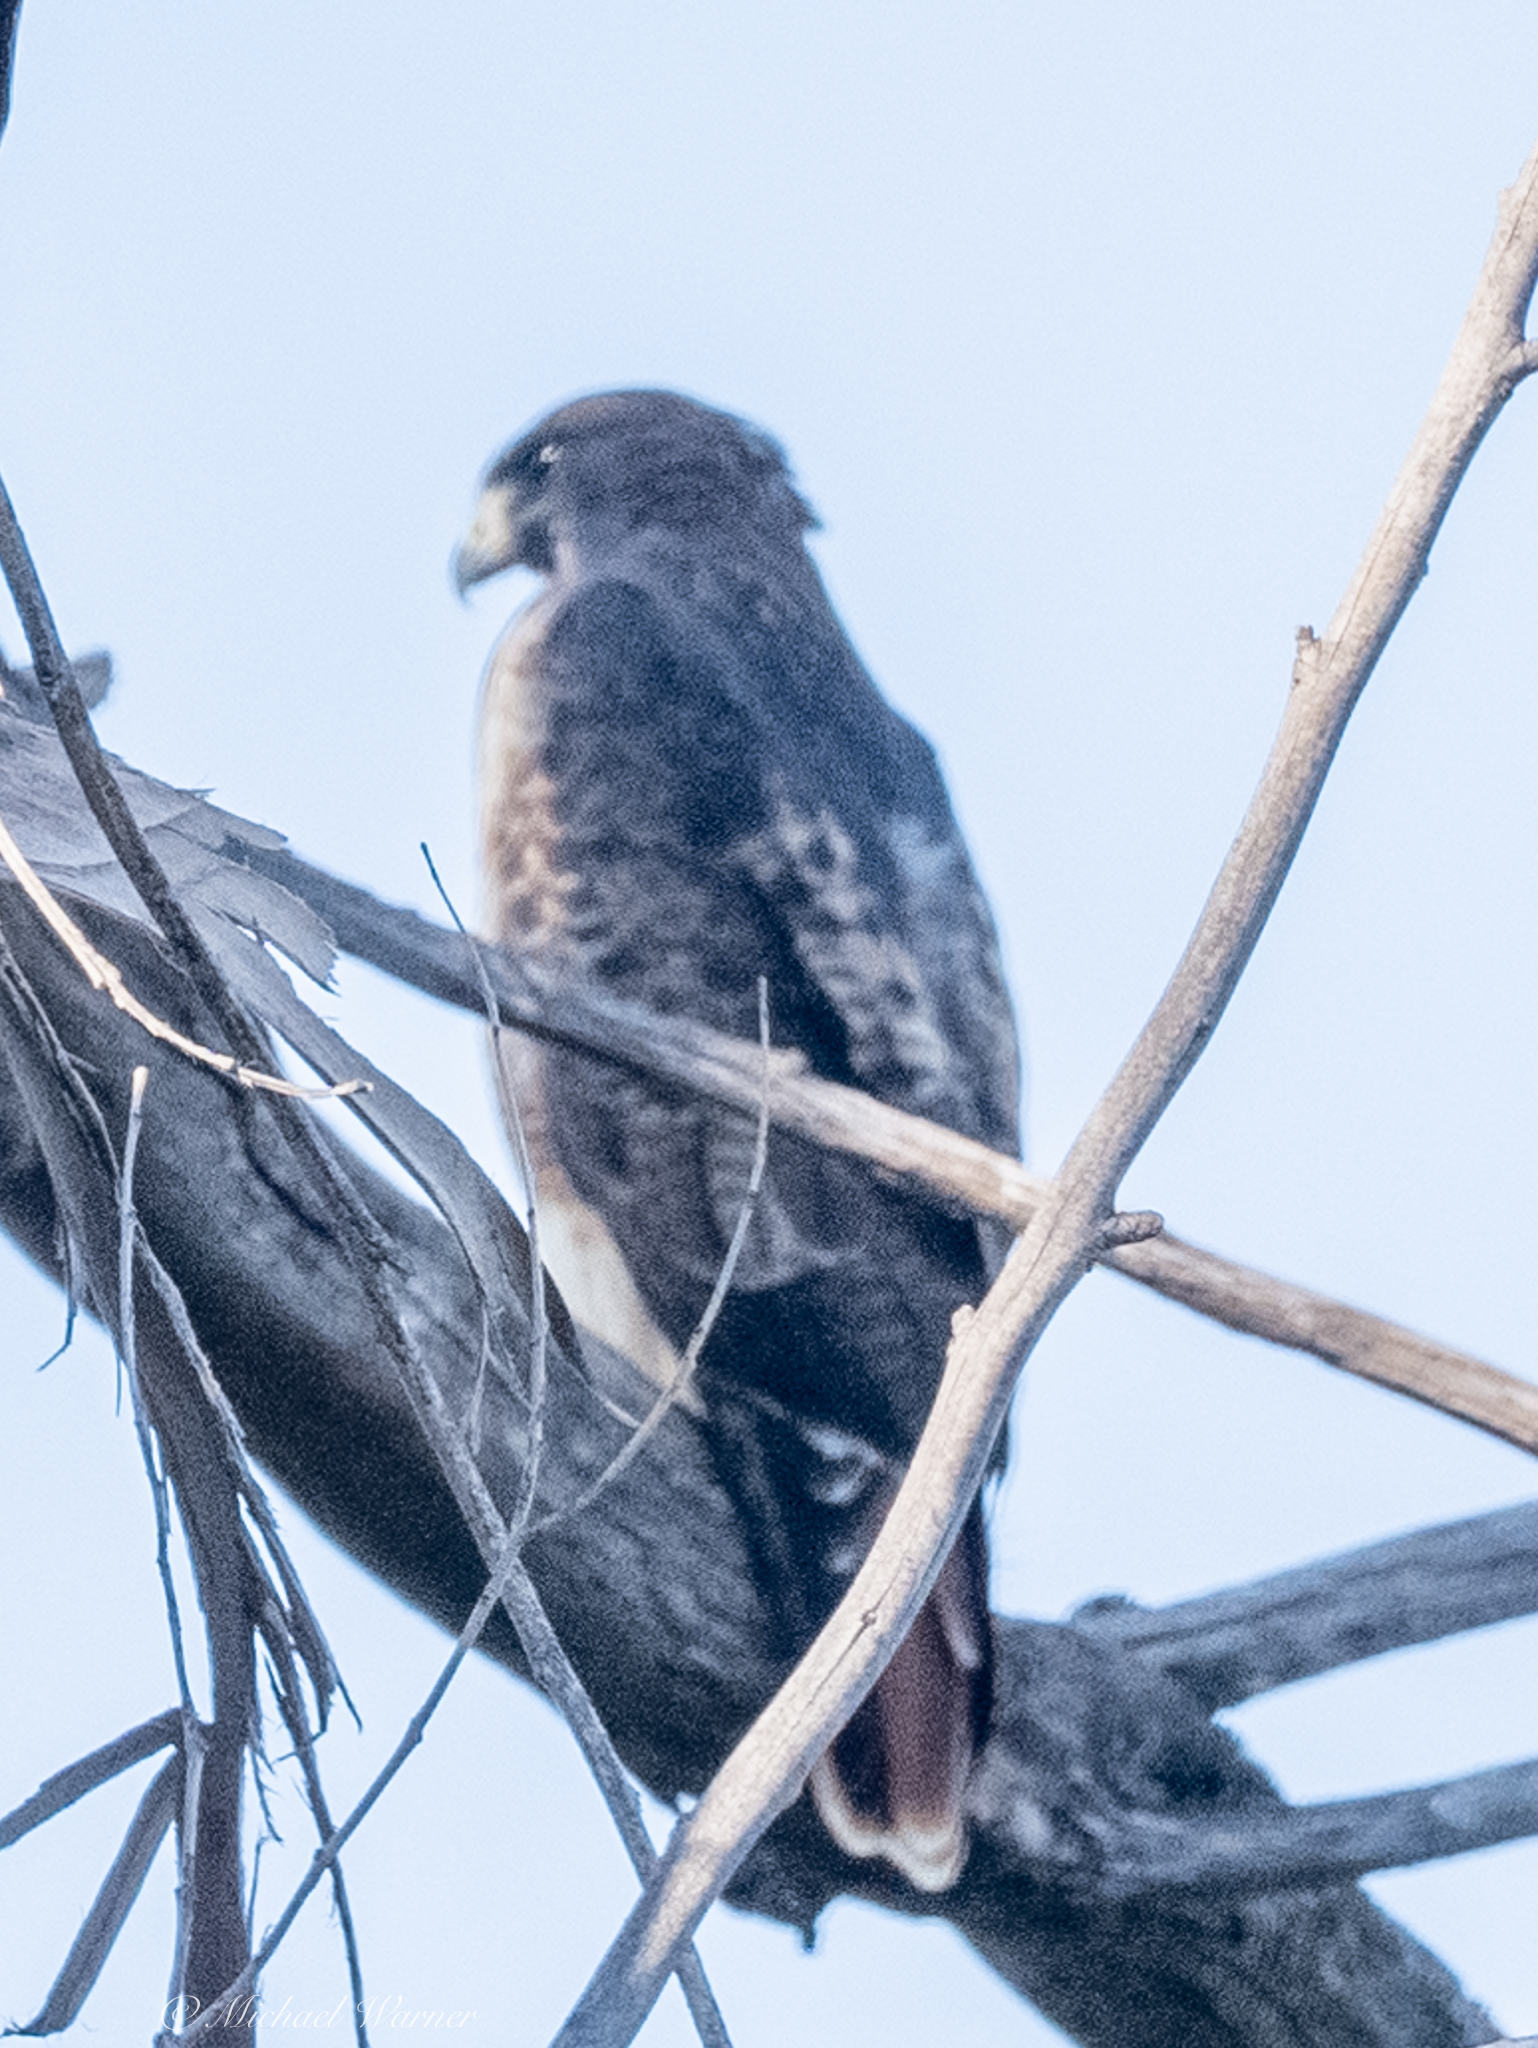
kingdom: Animalia
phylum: Chordata
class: Aves
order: Accipitriformes
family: Accipitridae
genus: Buteo
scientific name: Buteo jamaicensis
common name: Red-tailed hawk
